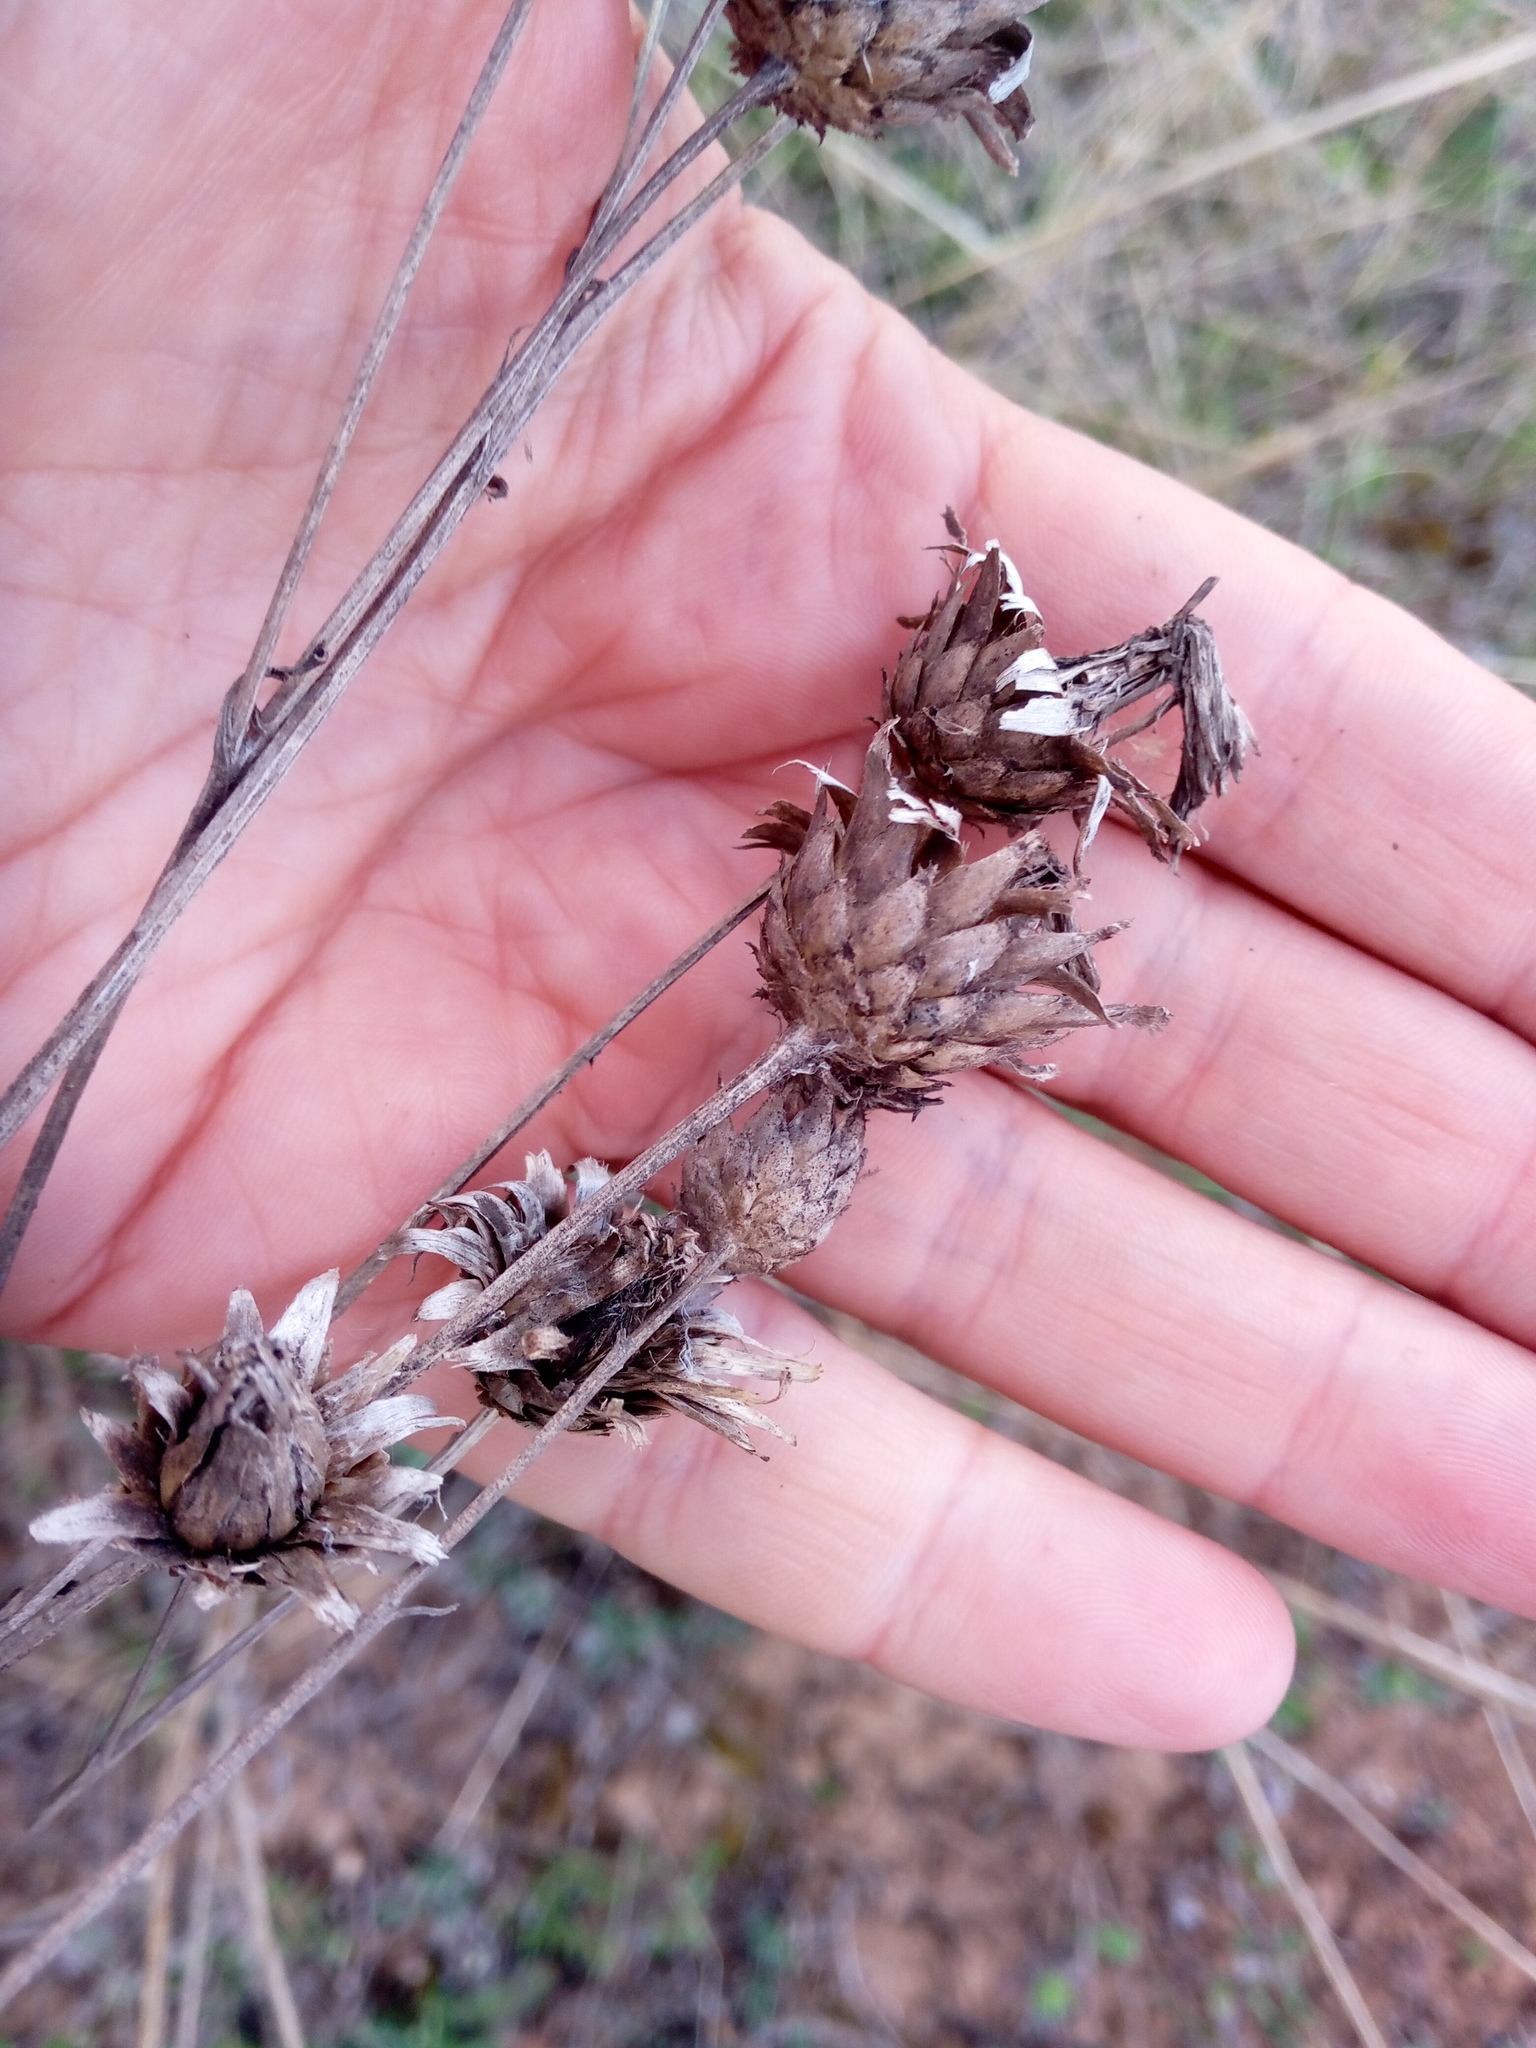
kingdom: Plantae
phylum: Tracheophyta
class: Magnoliopsida
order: Asterales
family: Asteraceae
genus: Centaurea
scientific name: Centaurea adpressa
